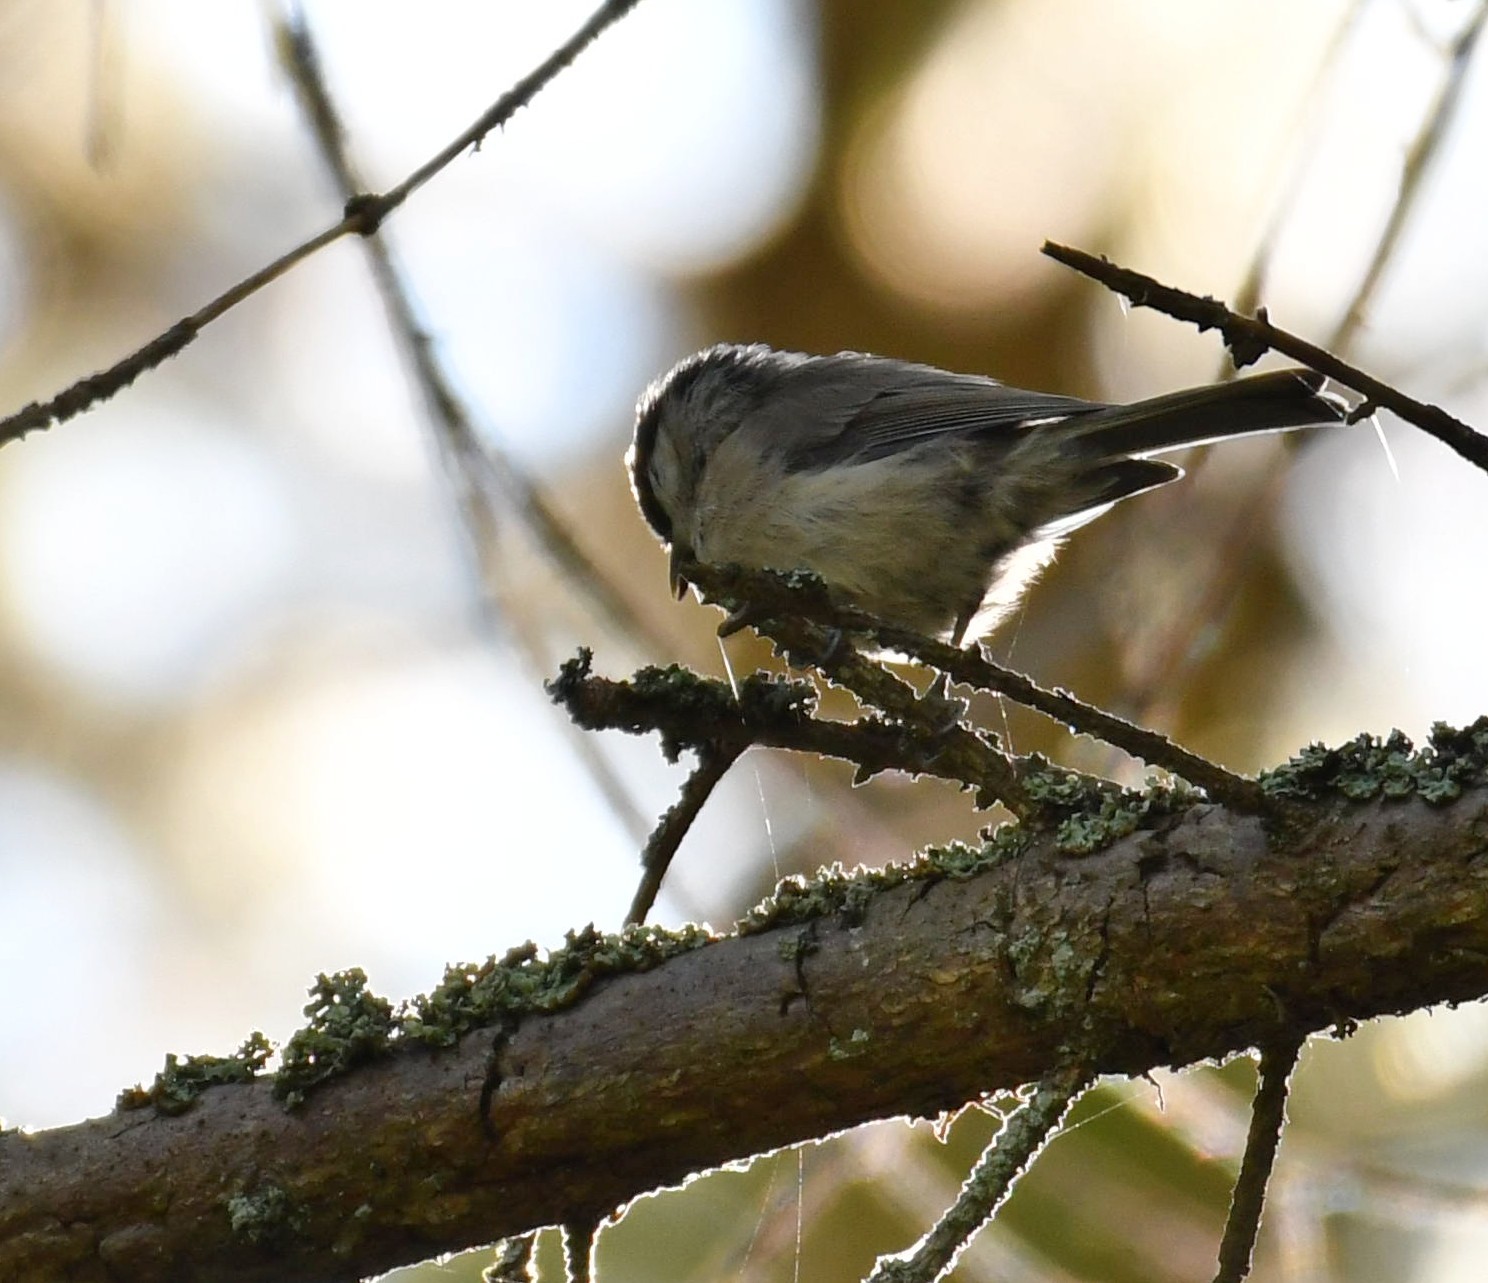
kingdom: Animalia
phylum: Chordata
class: Aves
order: Passeriformes
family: Paridae
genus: Poecile
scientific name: Poecile palustris
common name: Marsh tit
